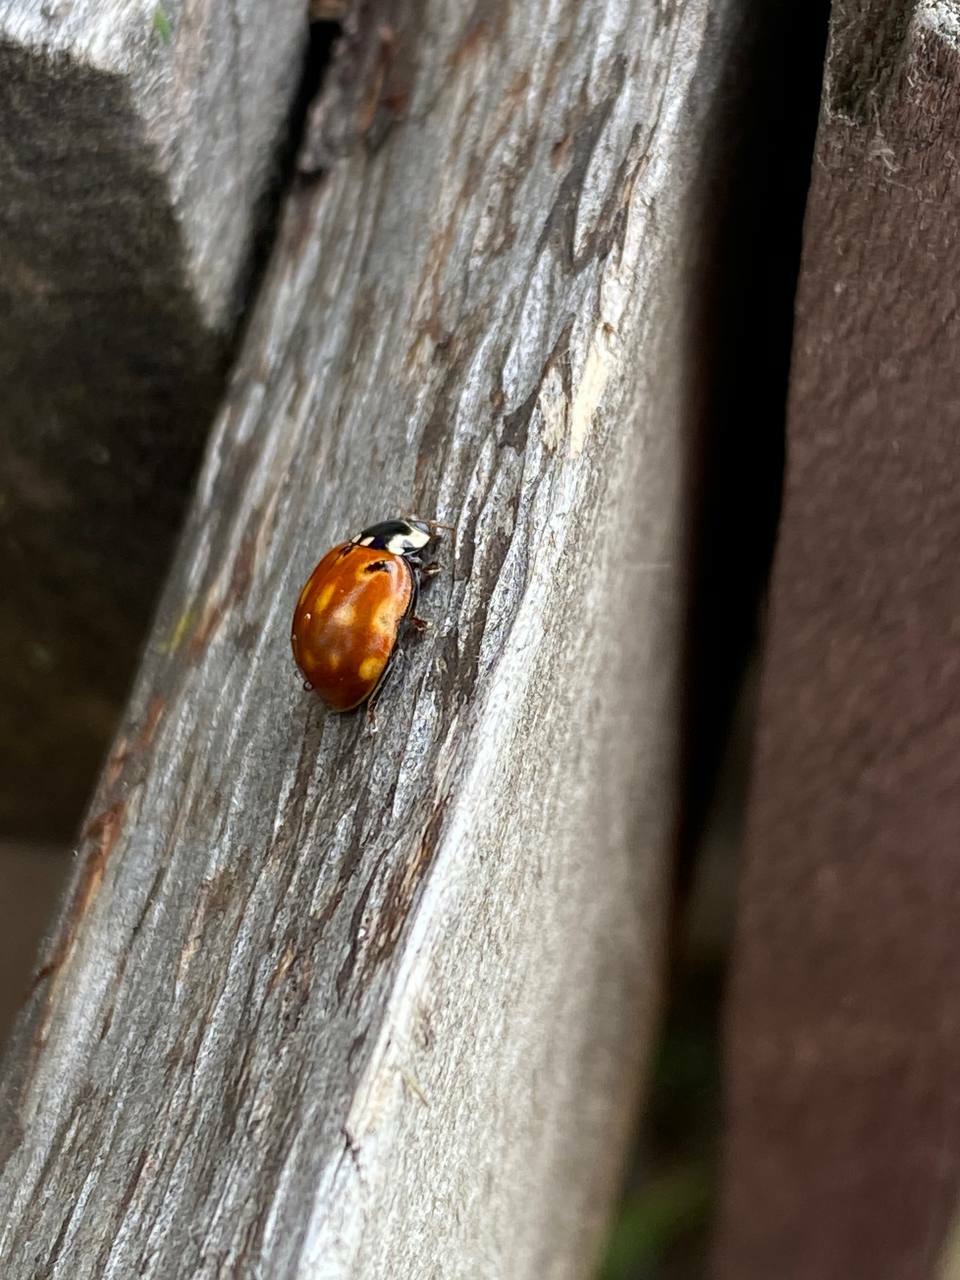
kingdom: Animalia
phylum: Arthropoda
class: Insecta
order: Coleoptera
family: Coccinellidae
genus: Anatis
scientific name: Anatis ocellata
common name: Eyed ladybird
